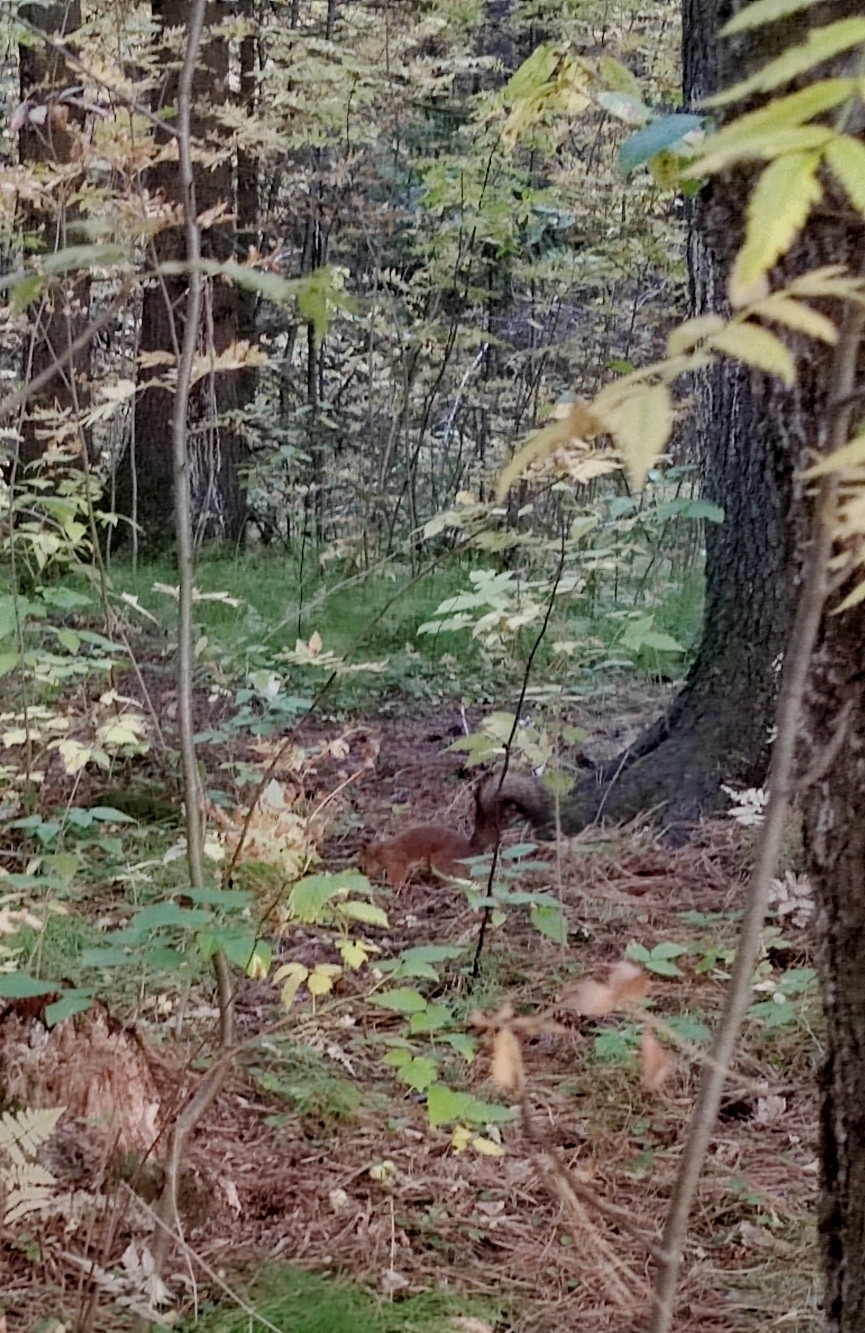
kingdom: Animalia
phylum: Chordata
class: Mammalia
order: Rodentia
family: Sciuridae
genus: Sciurus
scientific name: Sciurus vulgaris
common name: Eurasian red squirrel
